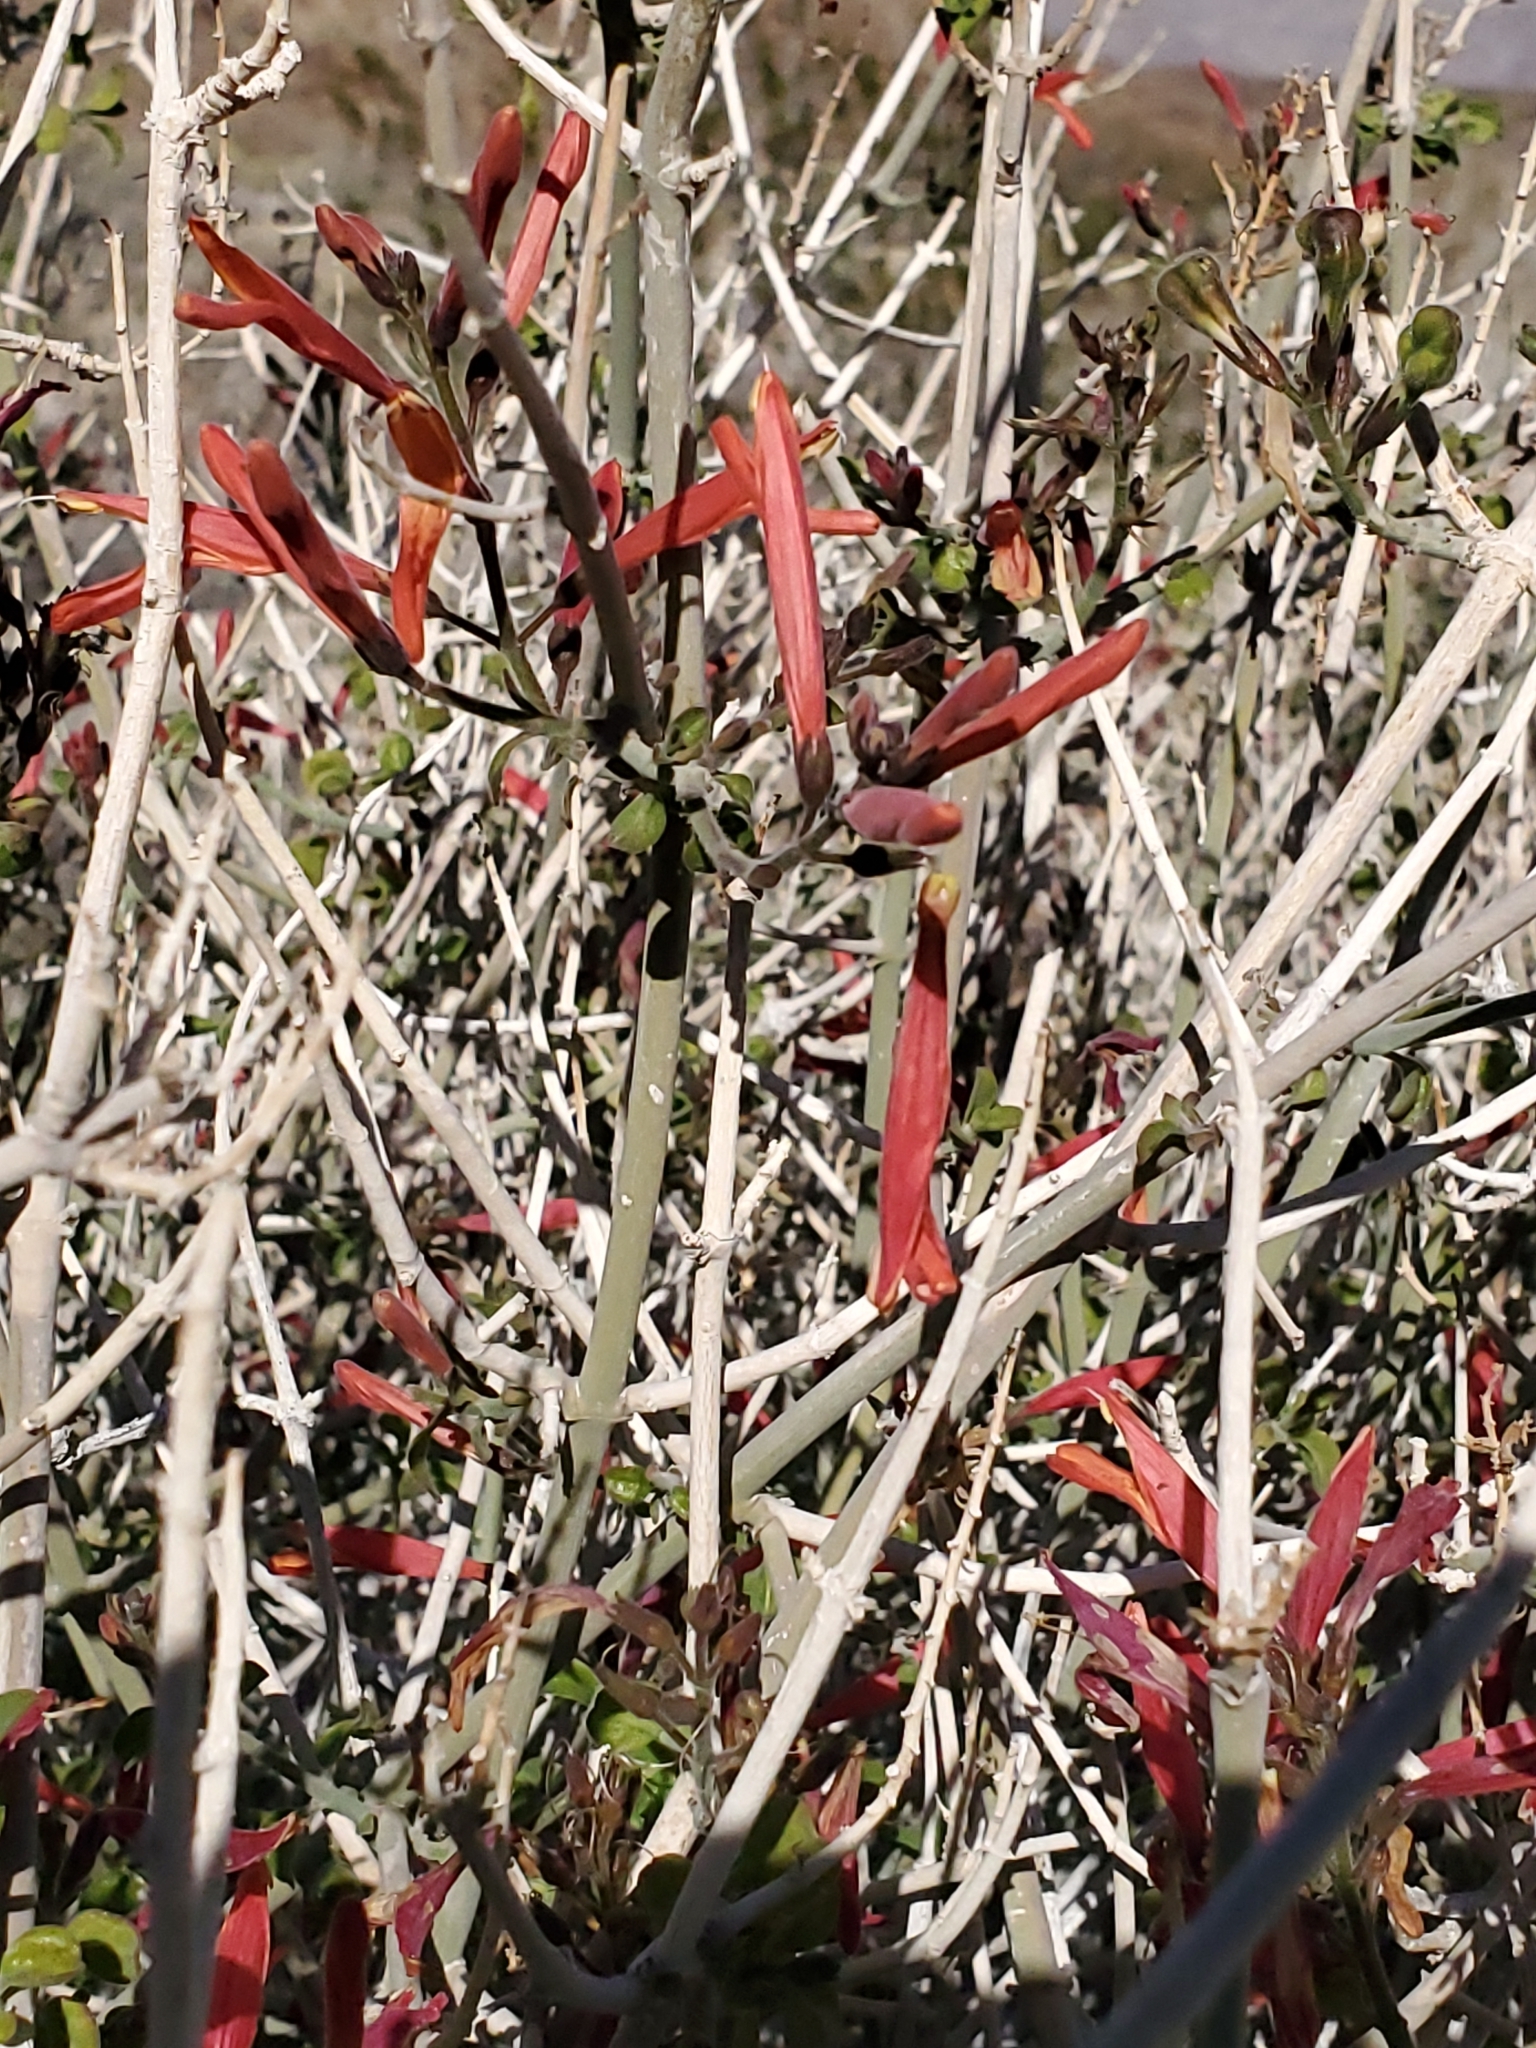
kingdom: Plantae
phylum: Tracheophyta
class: Magnoliopsida
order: Lamiales
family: Acanthaceae
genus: Justicia
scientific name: Justicia californica
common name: Chuparosa-honeysuckle
